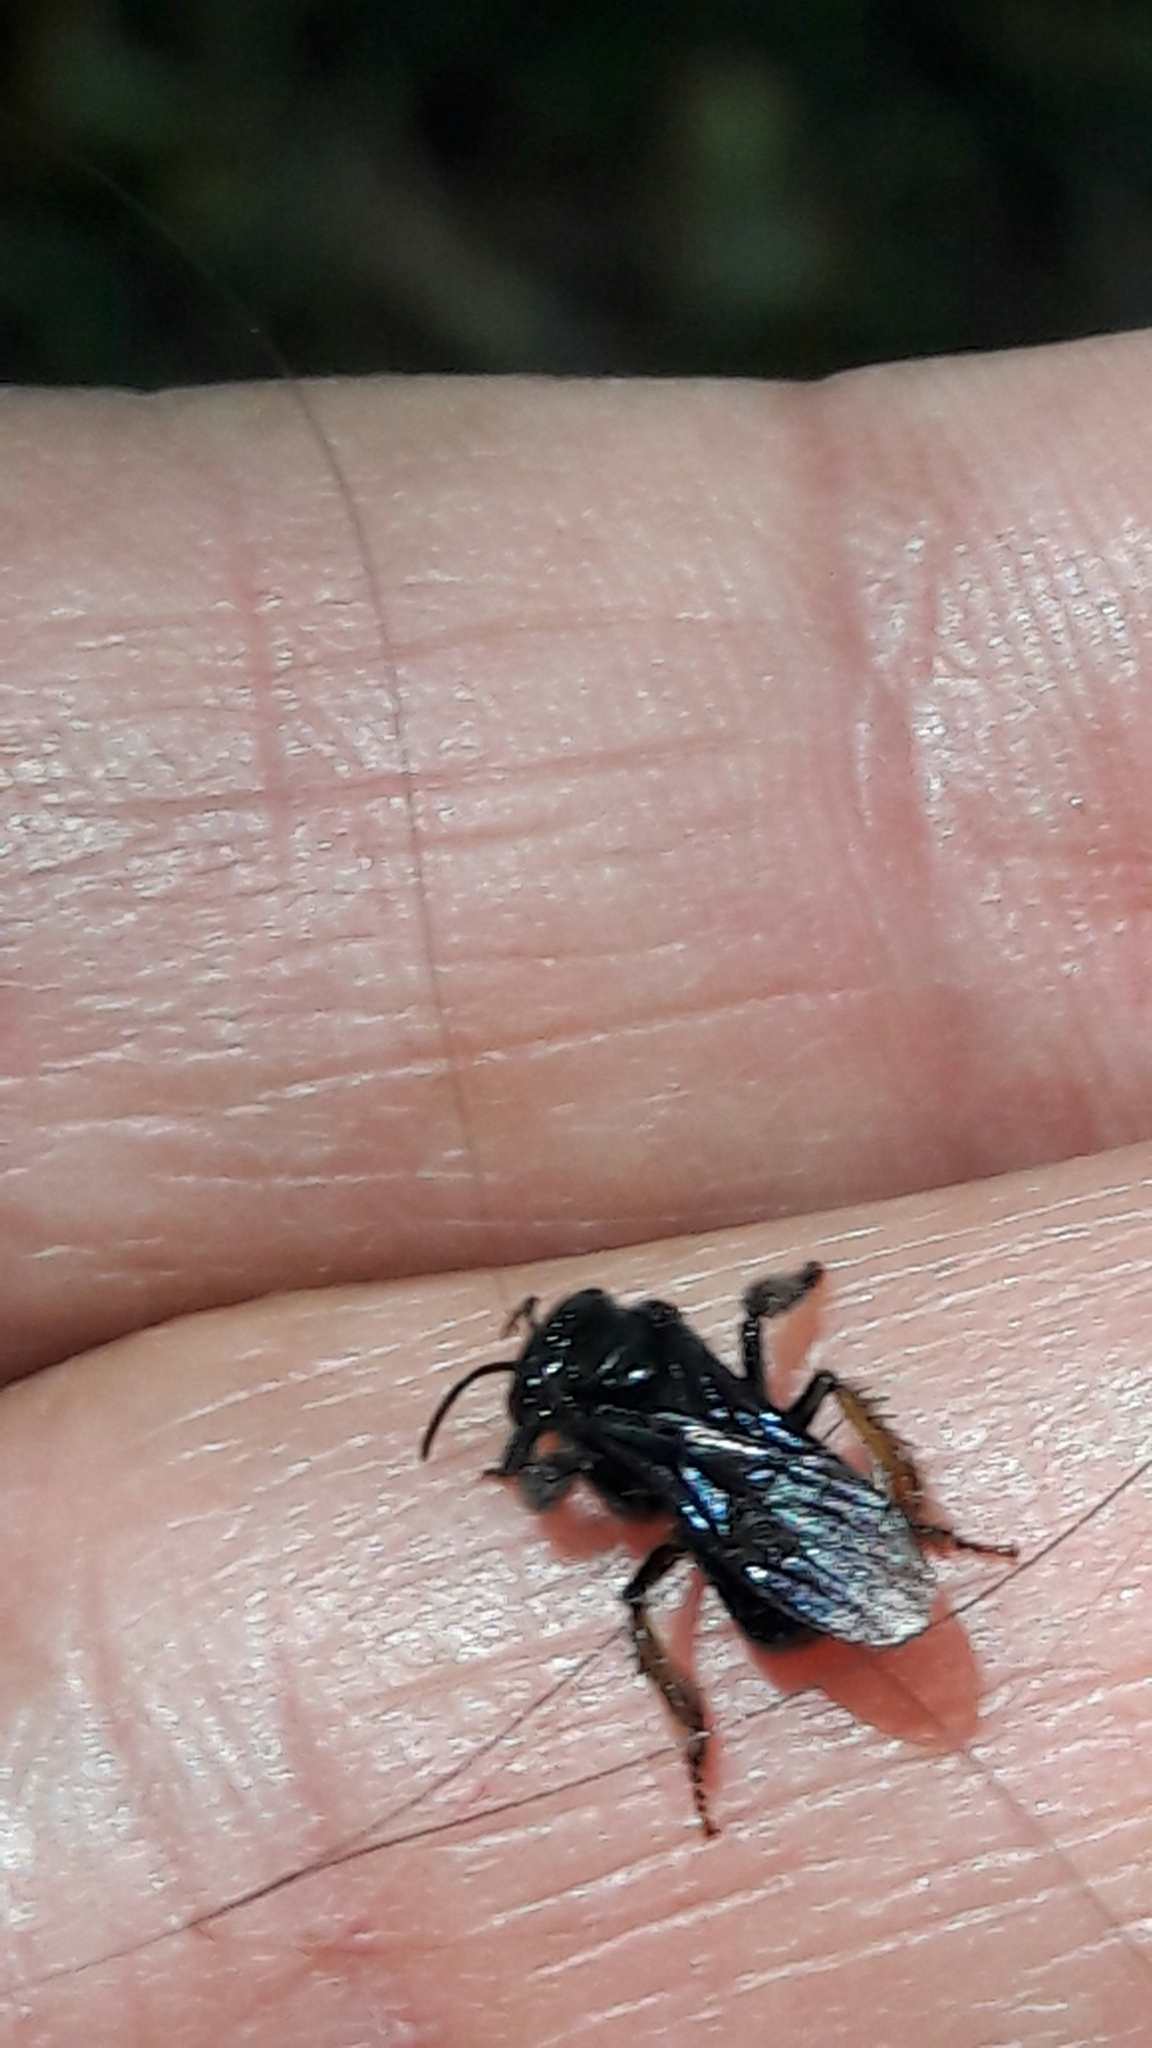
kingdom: Animalia
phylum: Arthropoda
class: Insecta
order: Hymenoptera
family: Apidae
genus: Trigona
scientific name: Trigona spinipes
